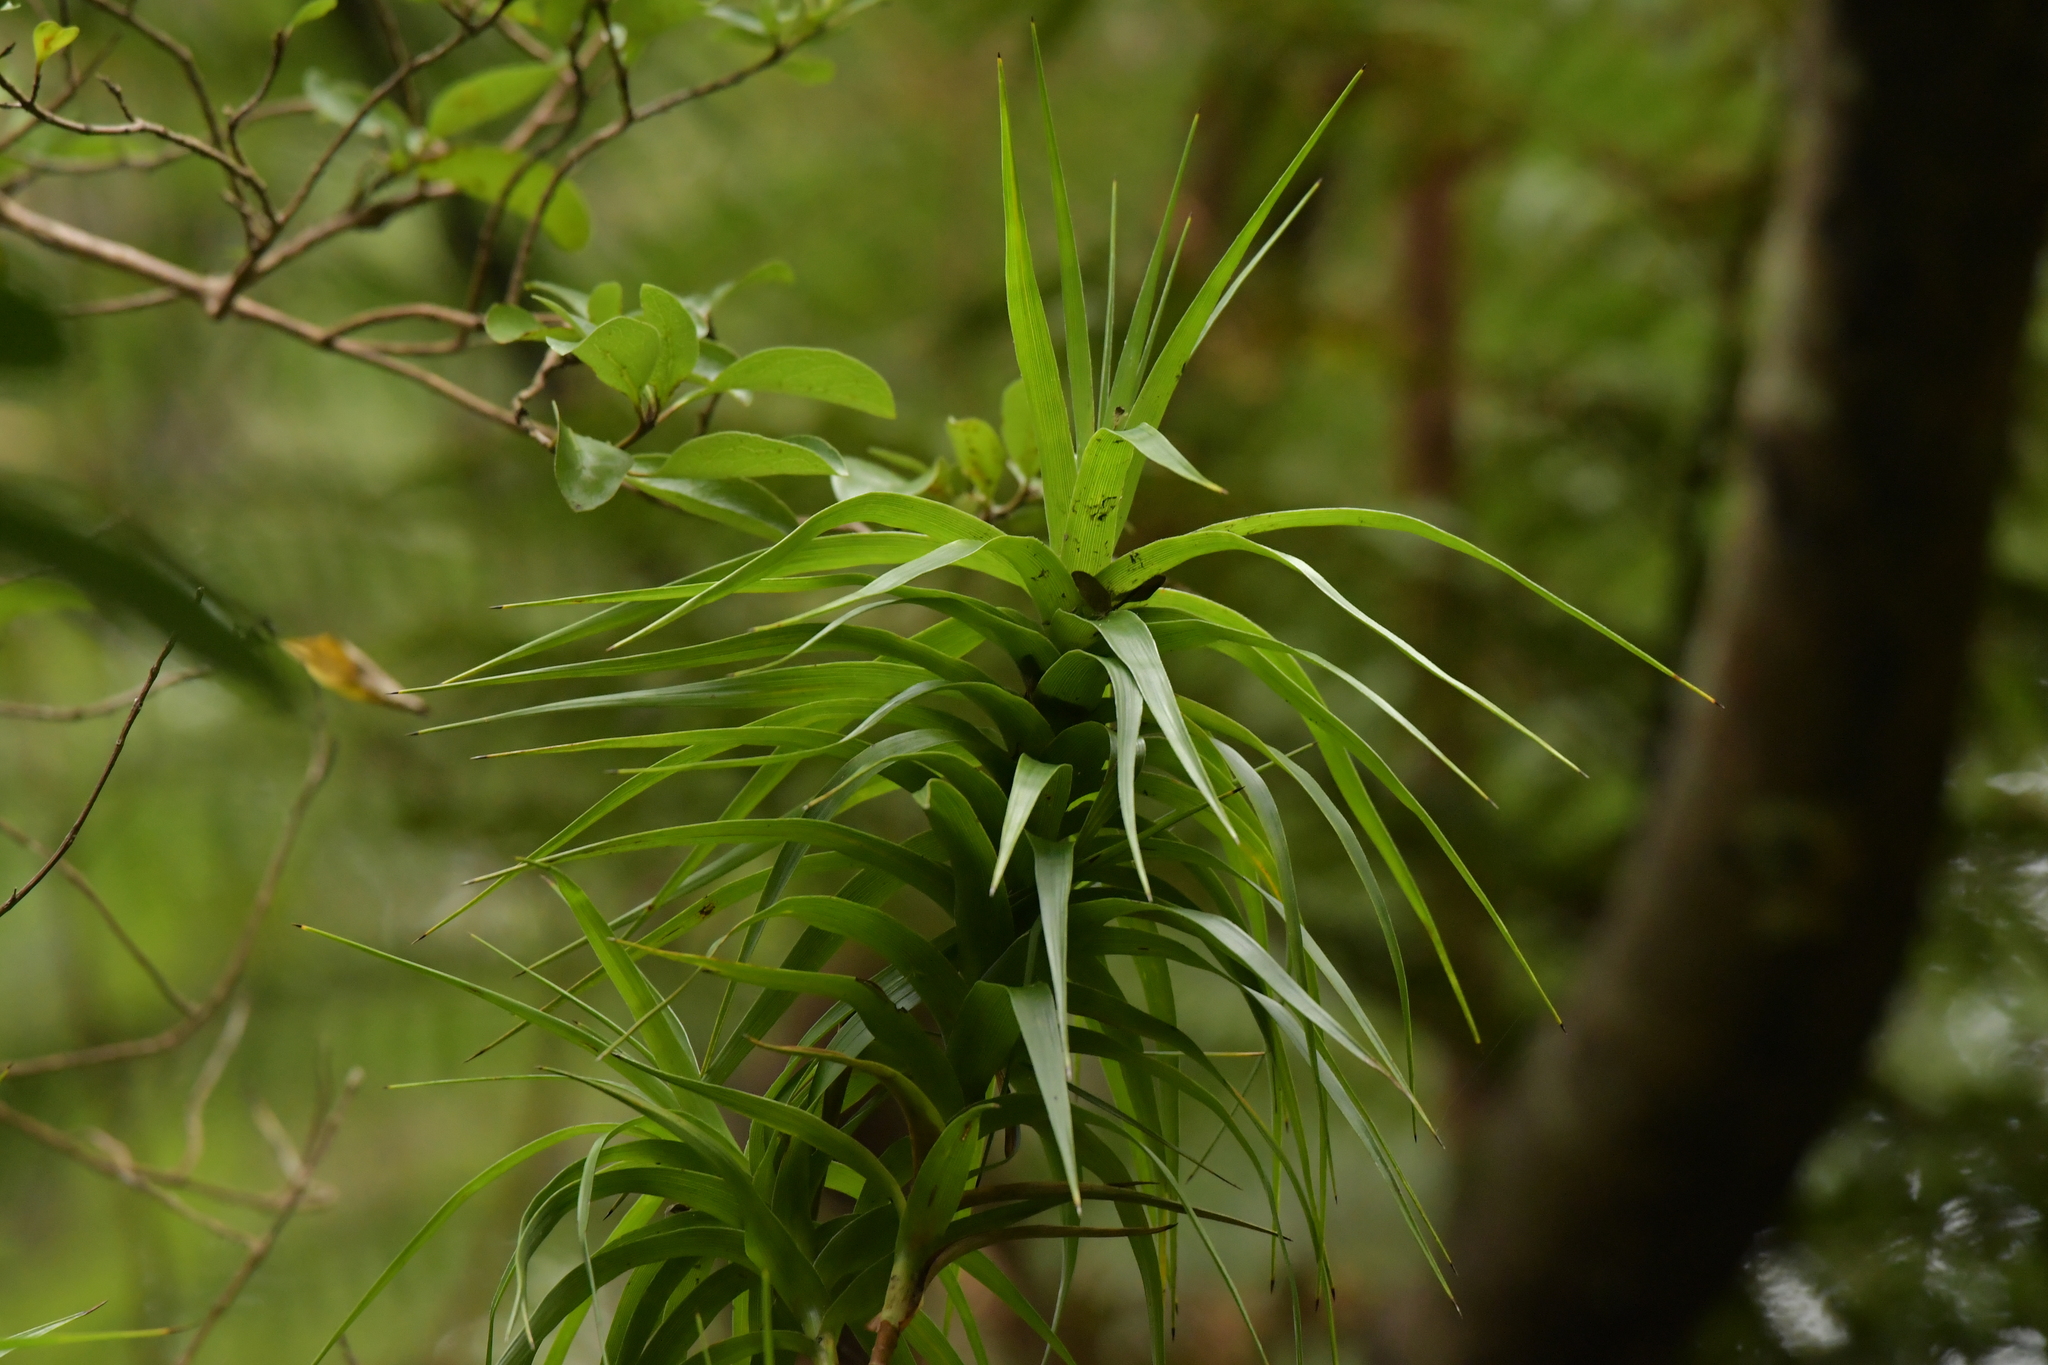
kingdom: Plantae
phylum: Tracheophyta
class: Magnoliopsida
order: Ericales
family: Ericaceae
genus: Dracophyllum
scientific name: Dracophyllum arboreum
